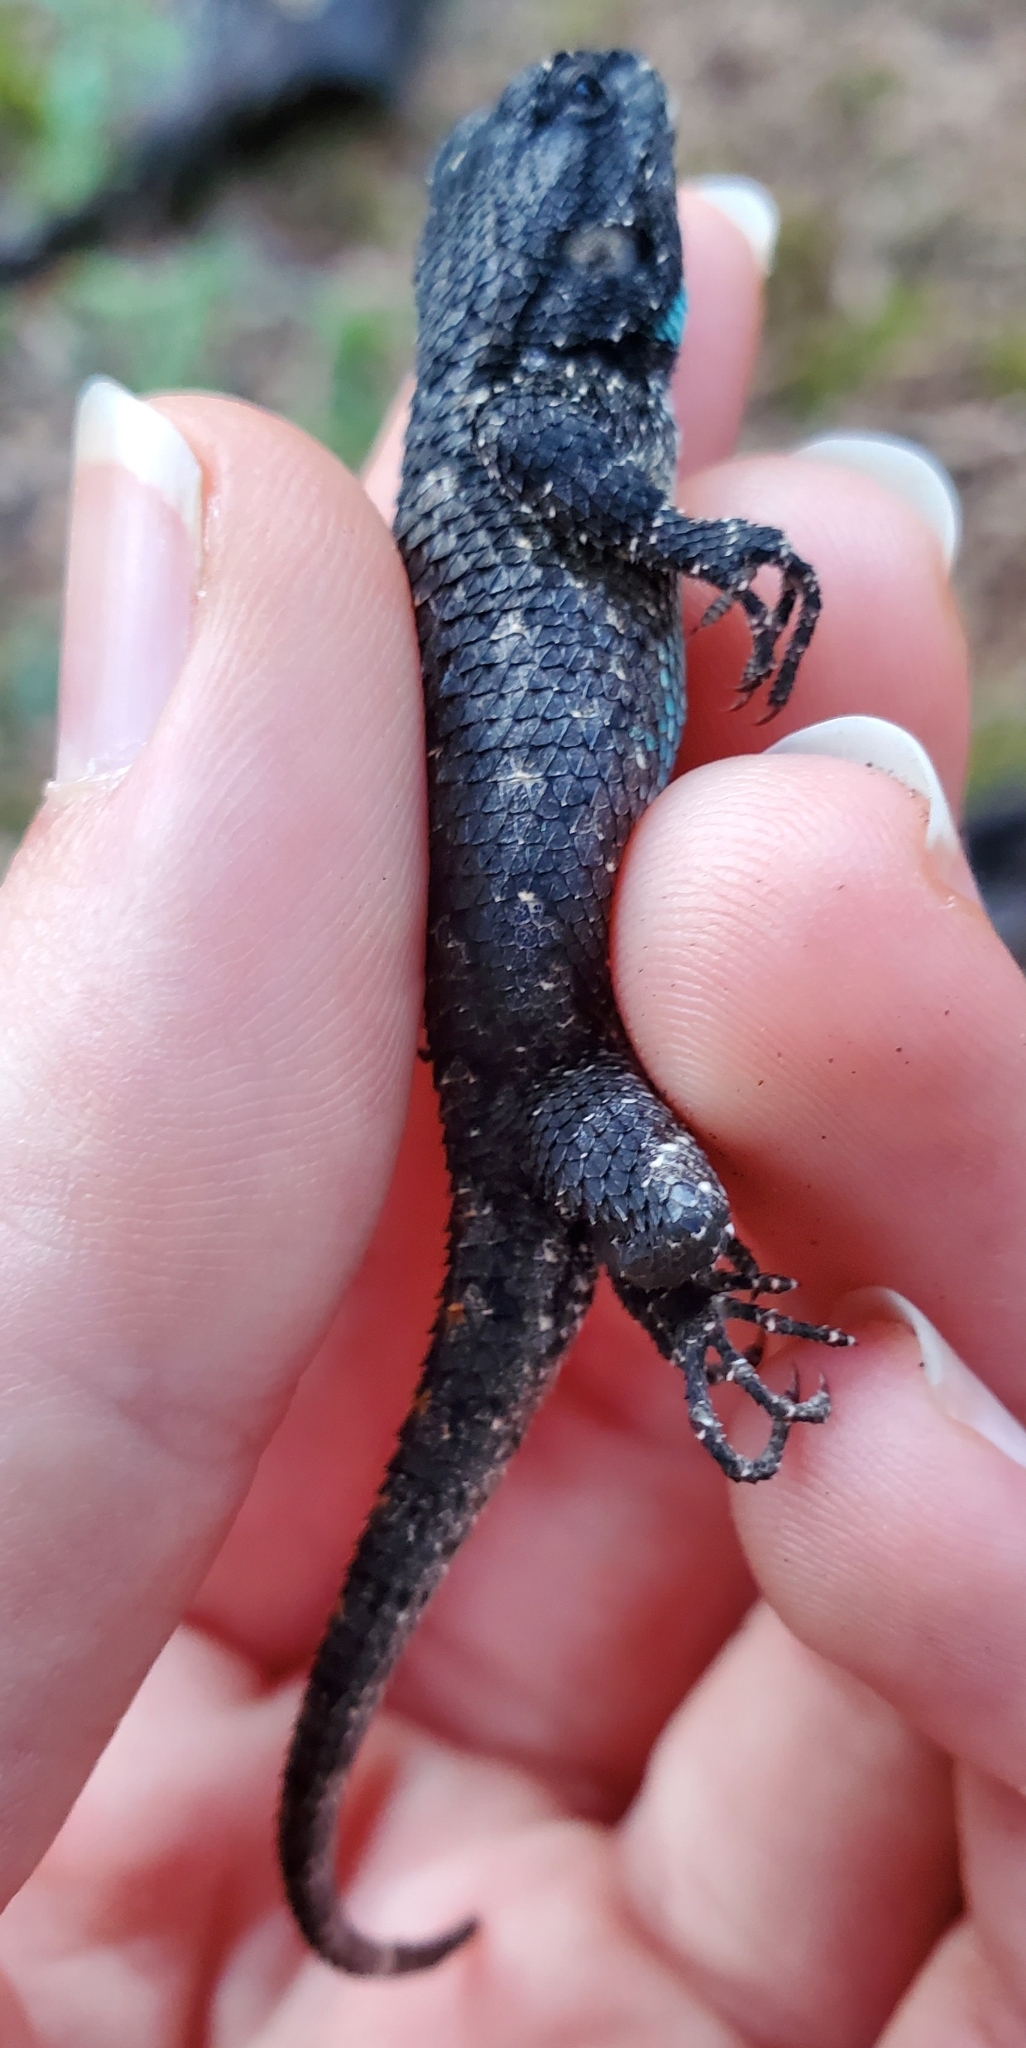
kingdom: Animalia
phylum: Chordata
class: Squamata
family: Phrynosomatidae
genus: Sceloporus
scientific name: Sceloporus undulatus
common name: Eastern fence lizard
